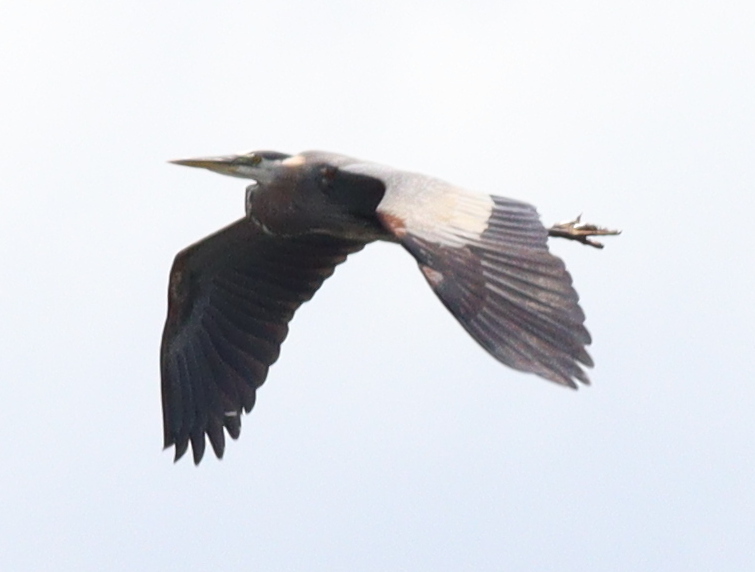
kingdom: Animalia
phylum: Chordata
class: Aves
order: Pelecaniformes
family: Ardeidae
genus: Ardea
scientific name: Ardea herodias
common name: Great blue heron
